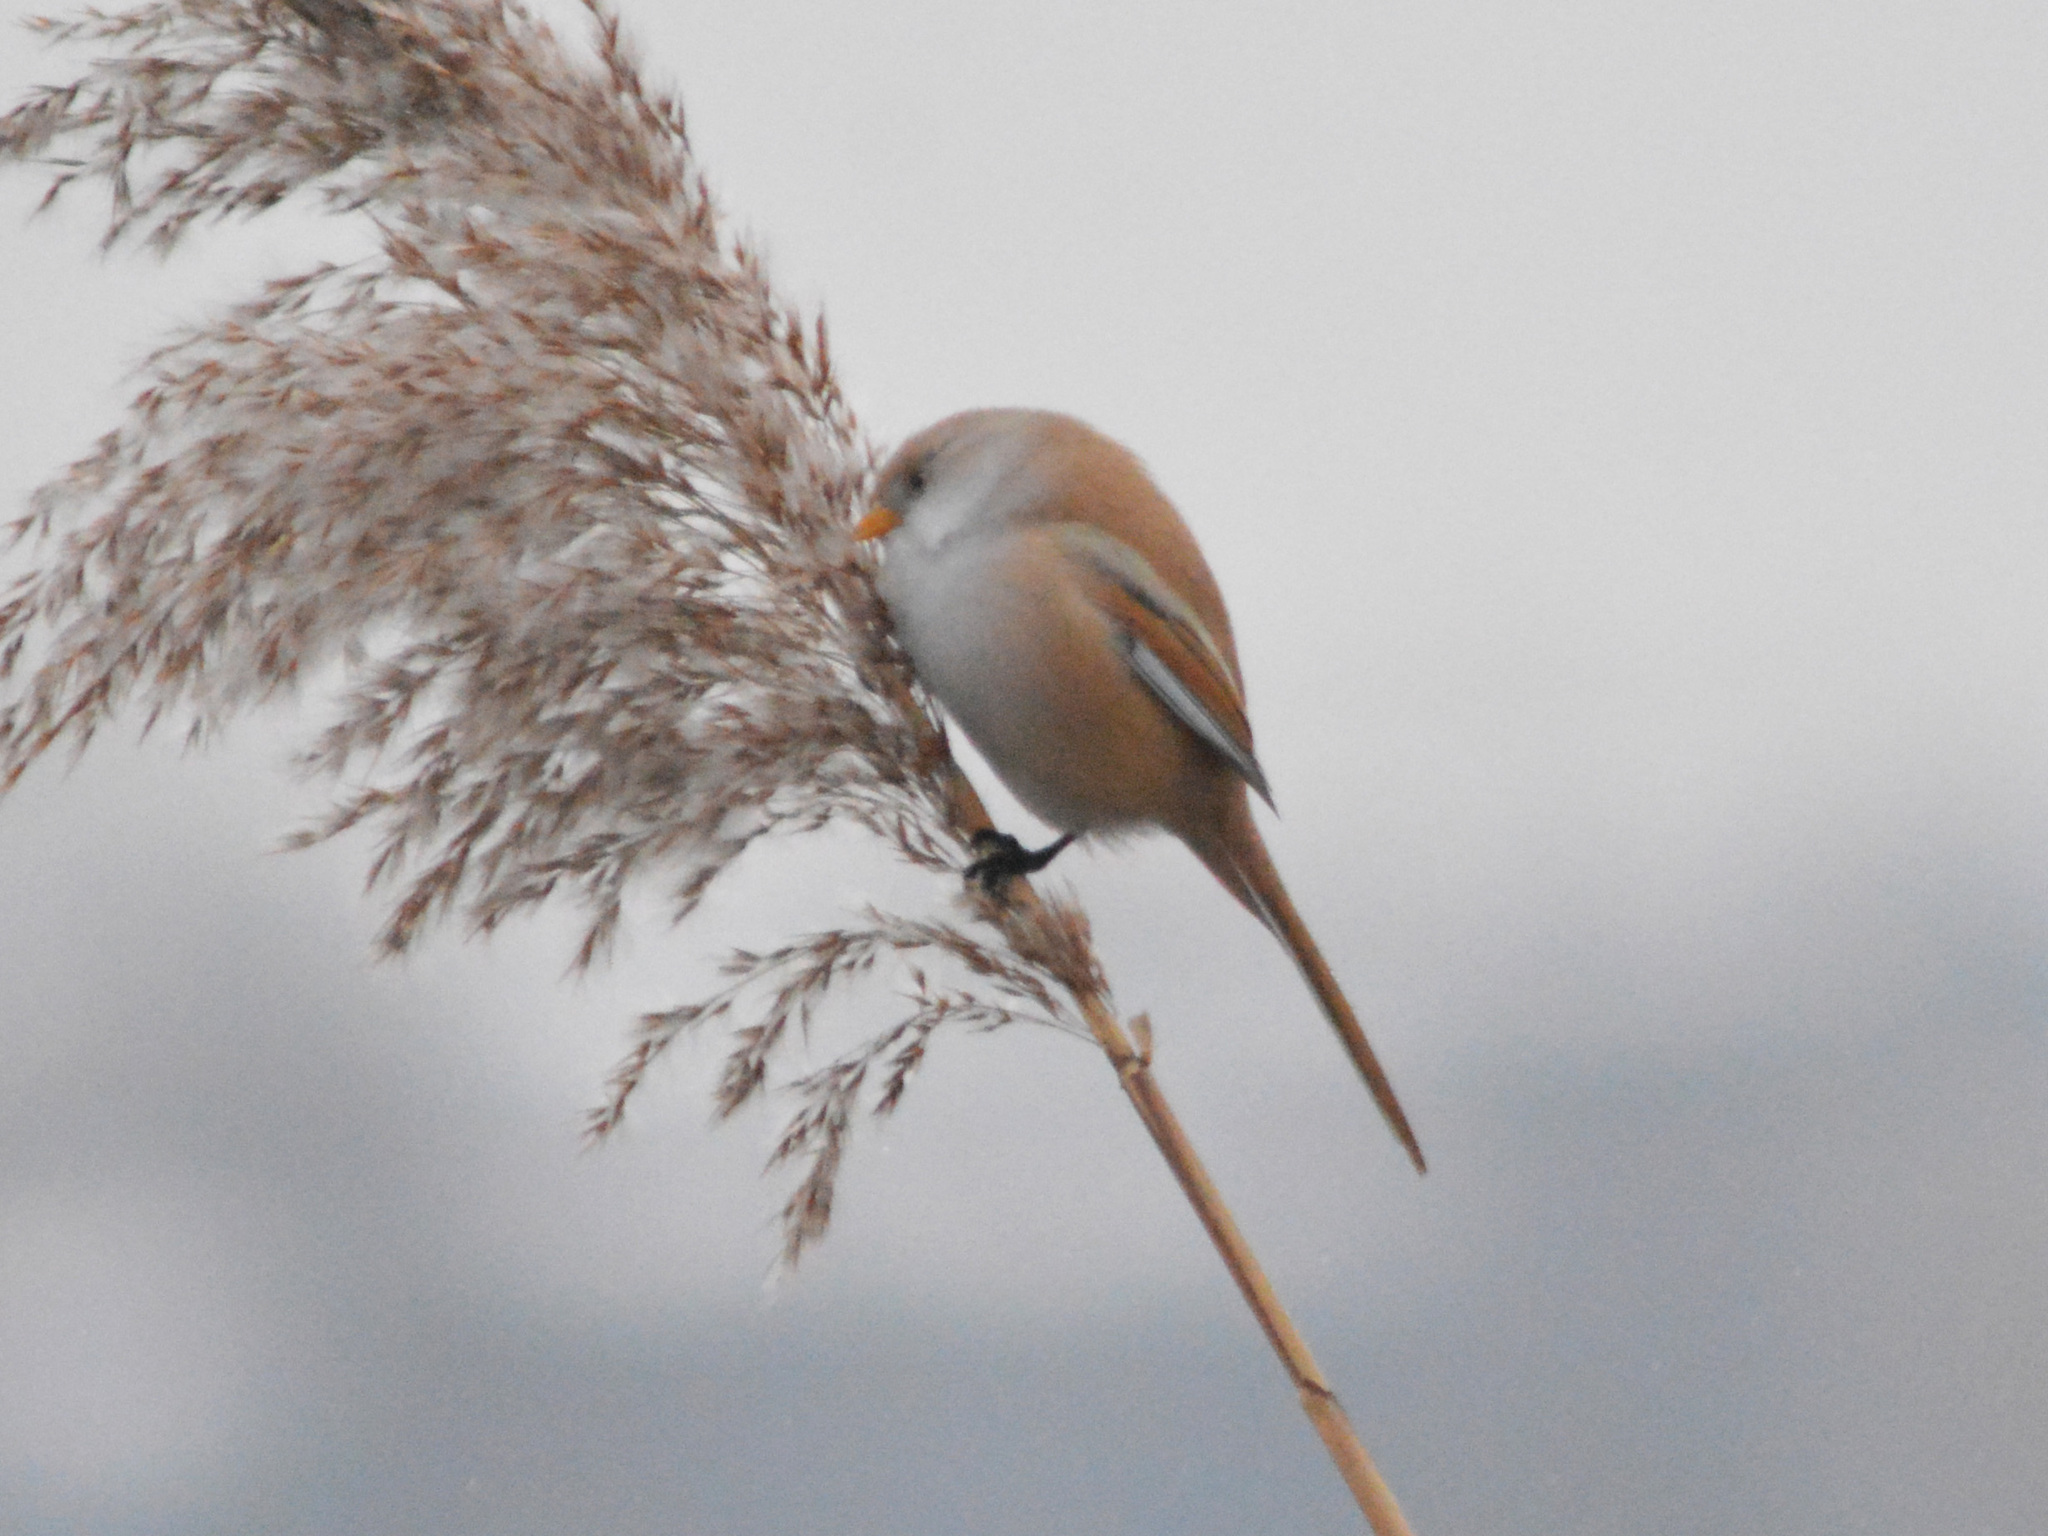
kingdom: Animalia
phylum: Chordata
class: Aves
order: Passeriformes
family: Panuridae
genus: Panurus
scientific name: Panurus biarmicus
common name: Bearded reedling
